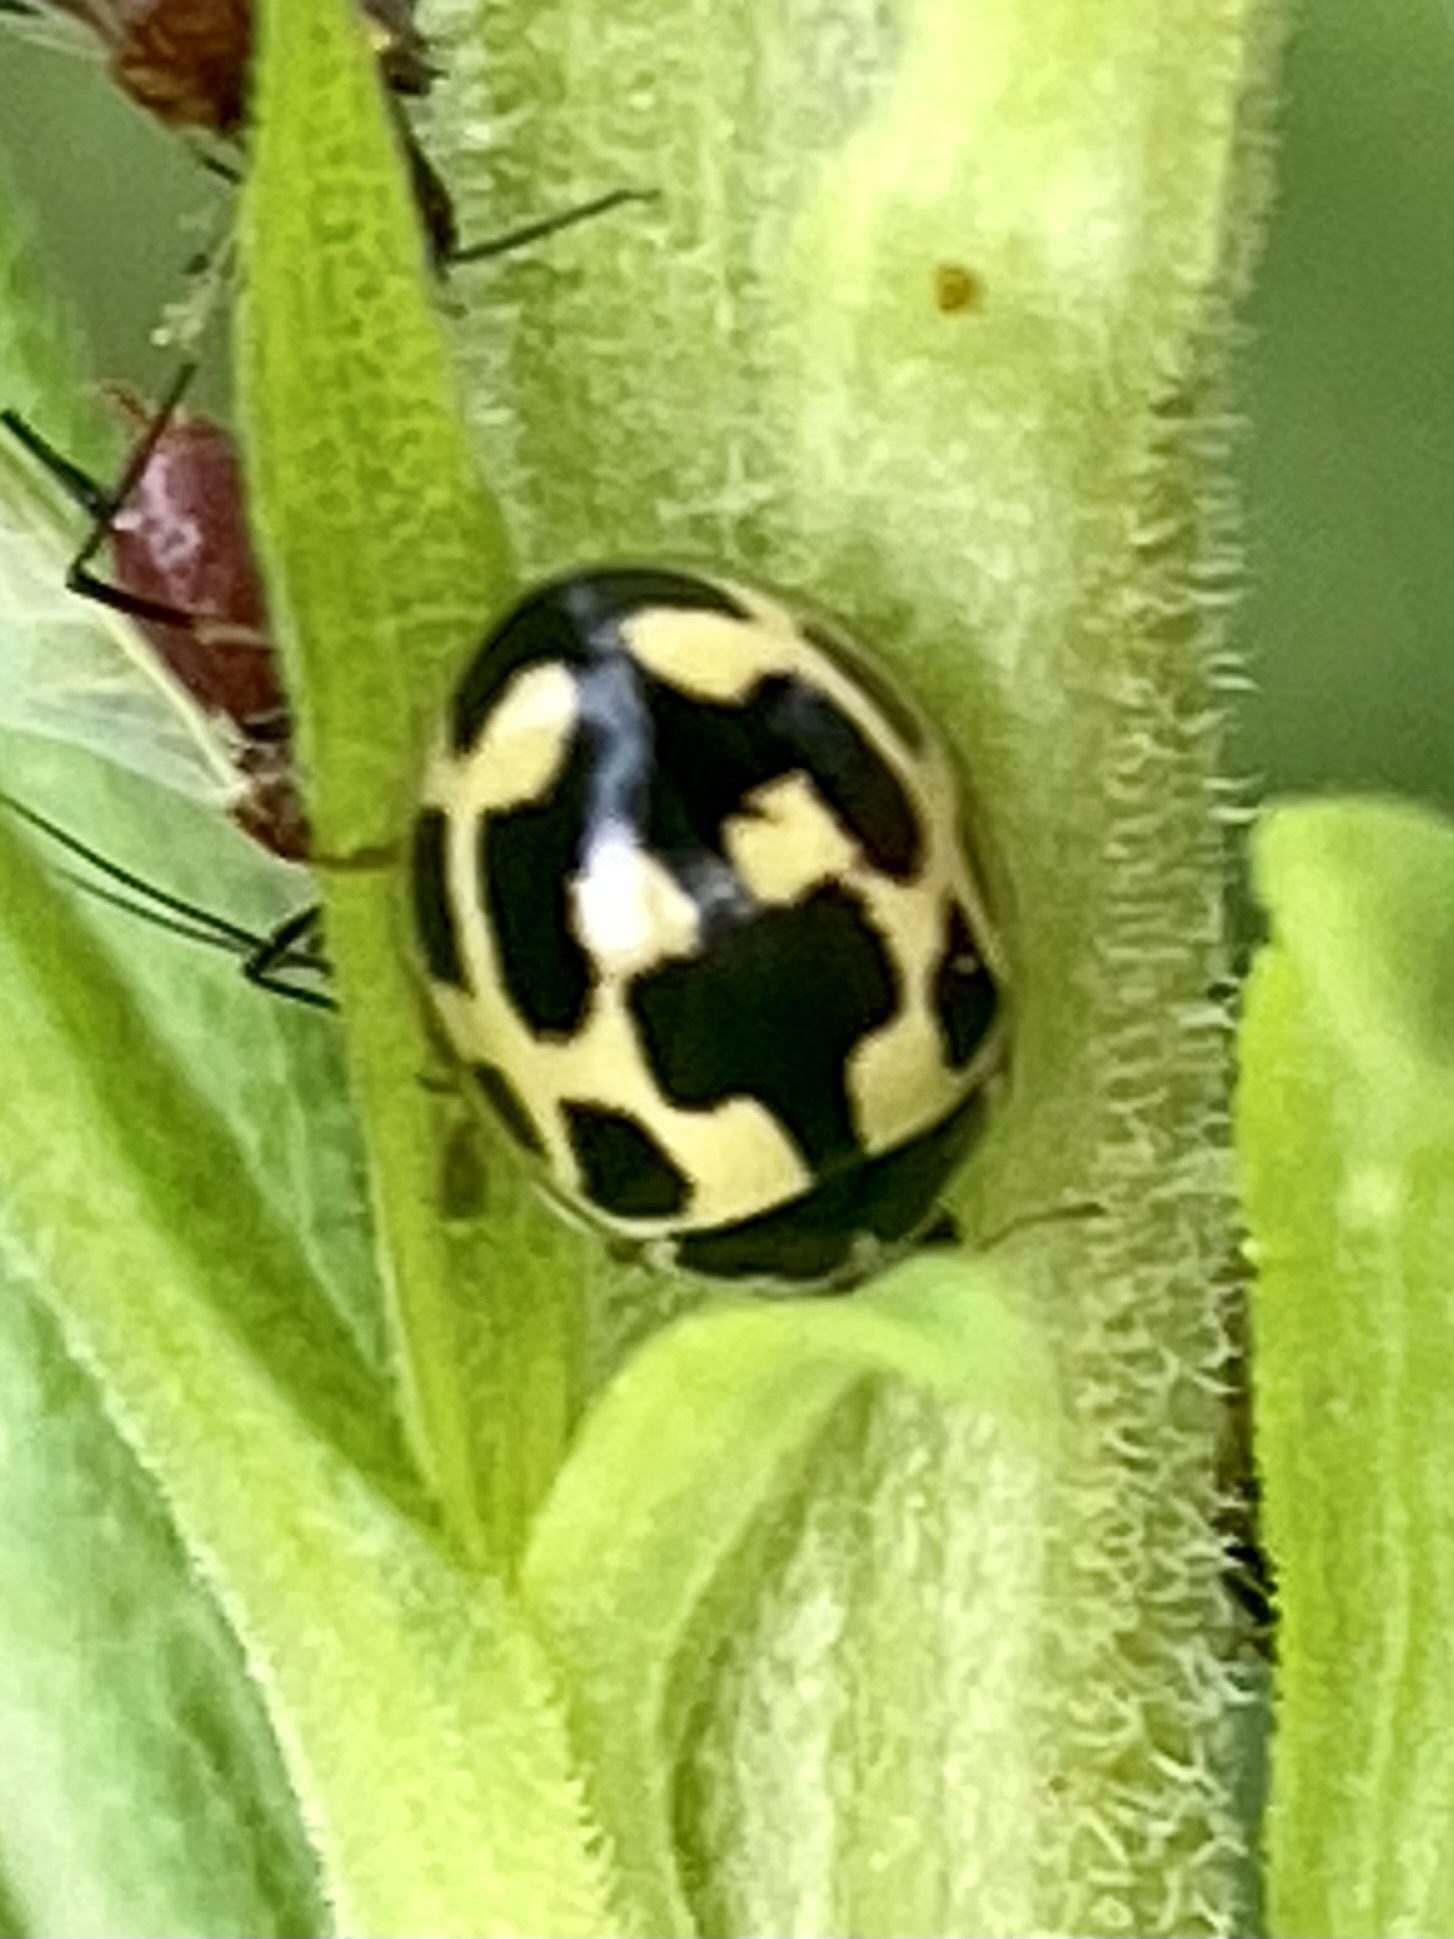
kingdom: Animalia
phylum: Arthropoda
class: Insecta
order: Coleoptera
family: Coccinellidae
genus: Propylaea
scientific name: Propylaea quatuordecimpunctata
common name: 14-spotted ladybird beetle
